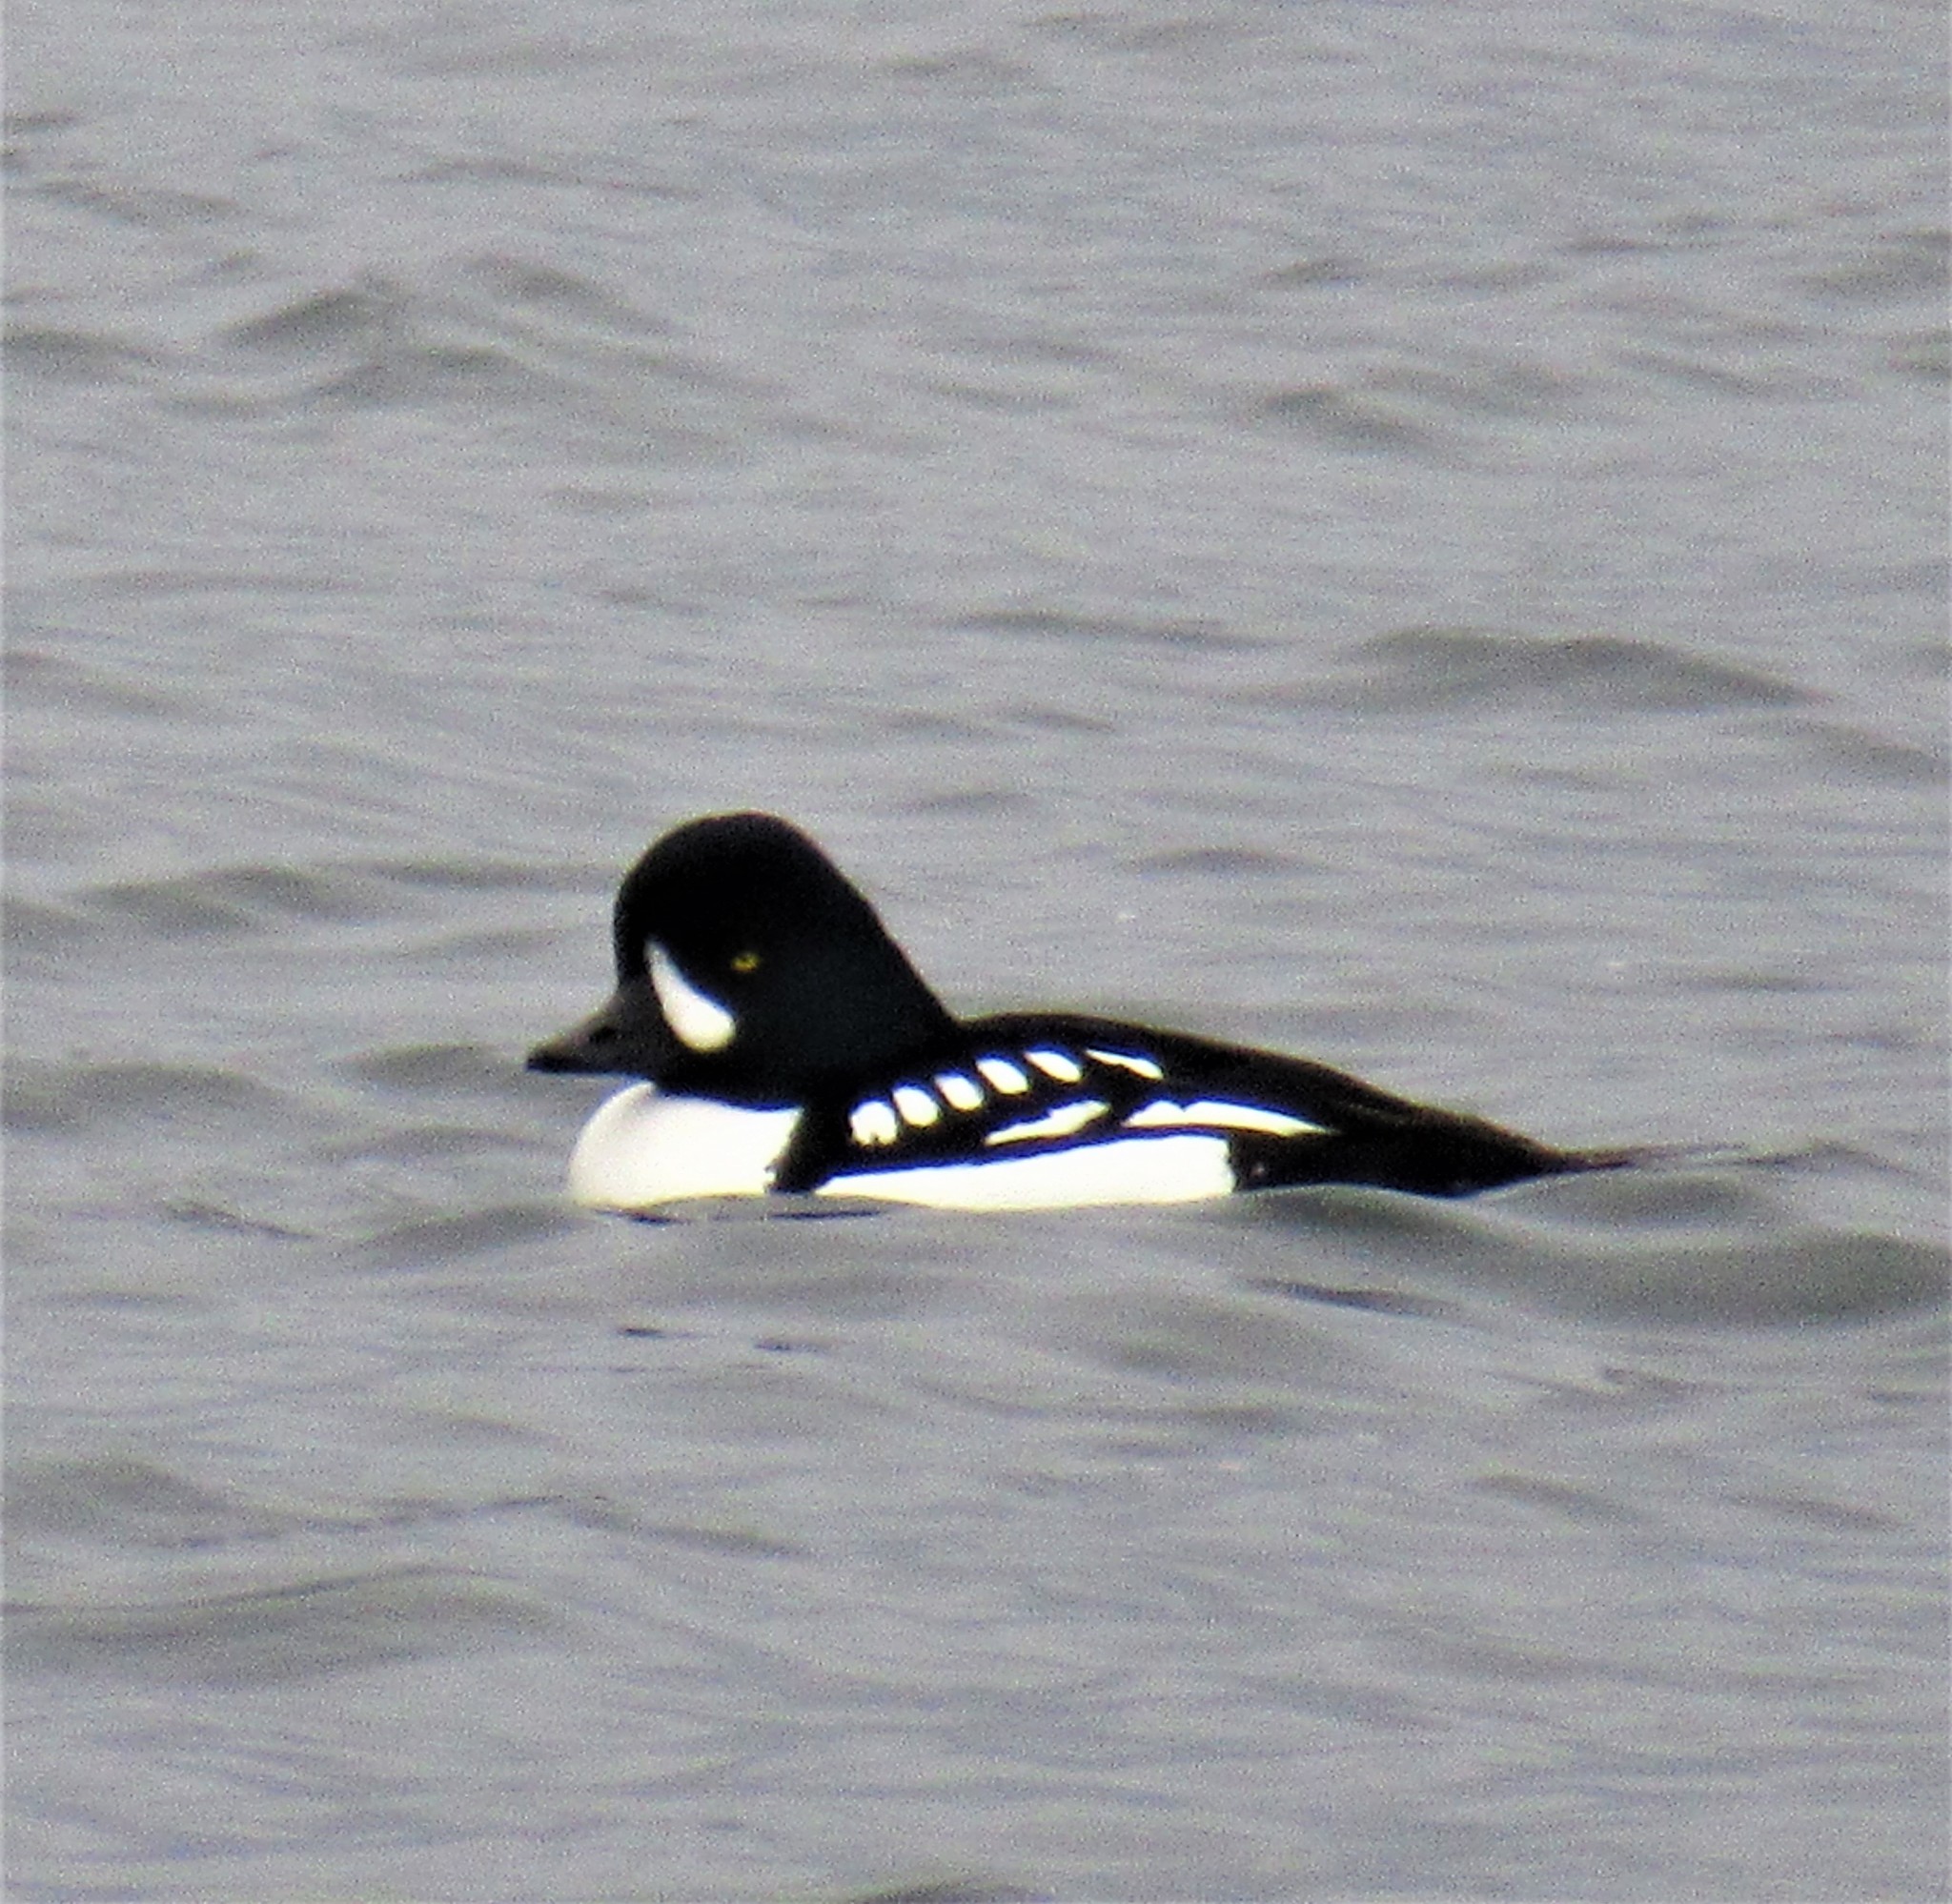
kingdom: Animalia
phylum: Chordata
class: Aves
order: Anseriformes
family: Anatidae
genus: Bucephala
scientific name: Bucephala islandica
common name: Barrow's goldeneye
